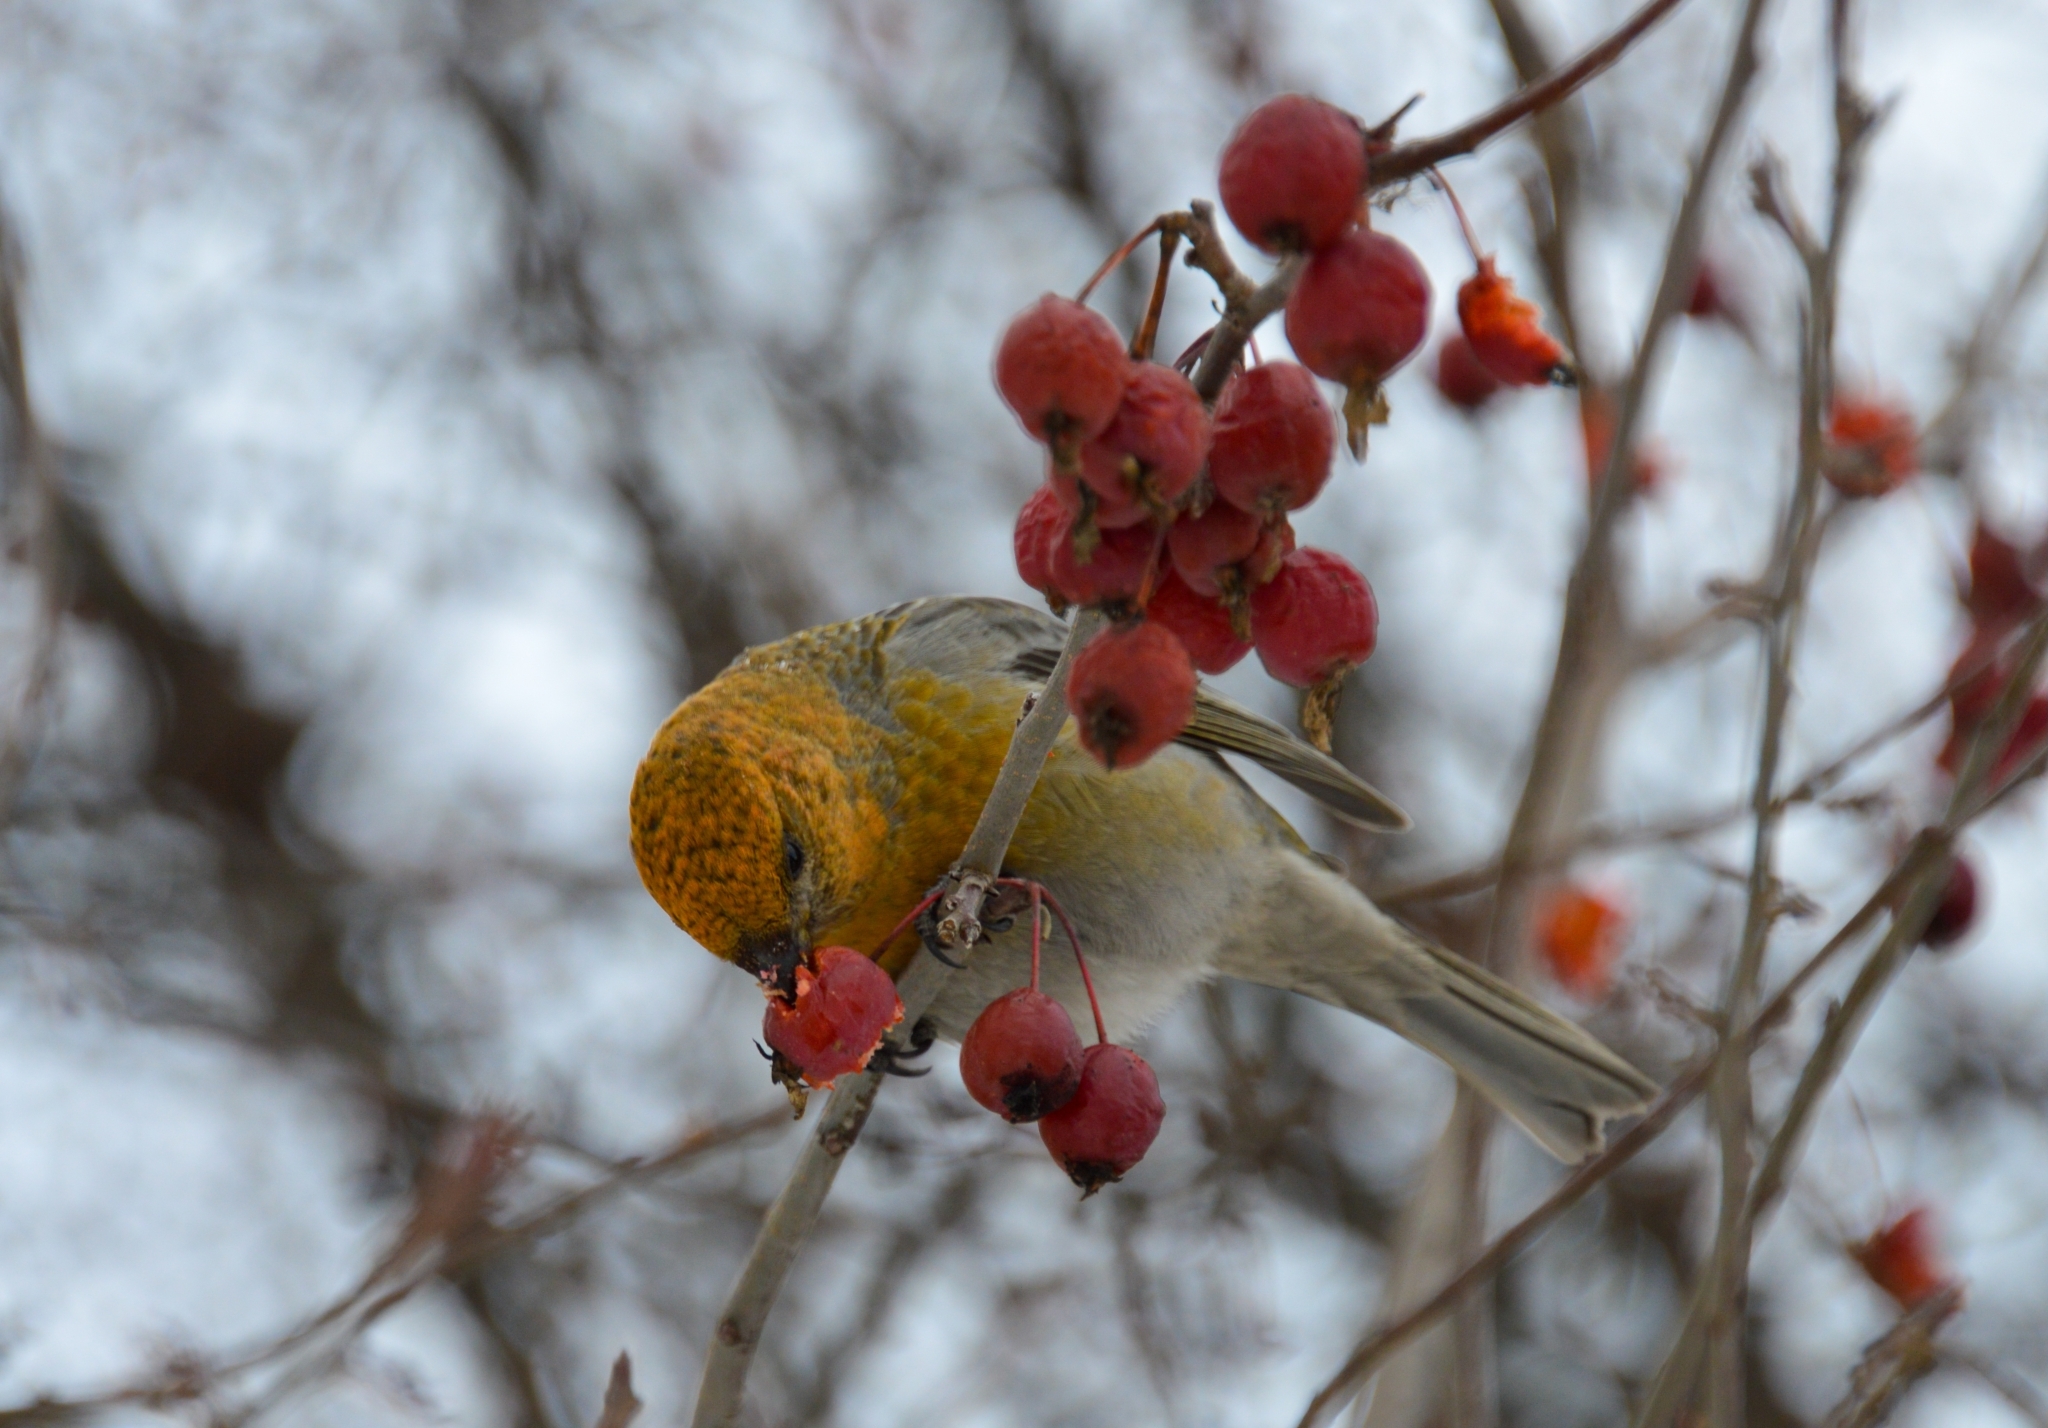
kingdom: Animalia
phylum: Chordata
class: Aves
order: Passeriformes
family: Fringillidae
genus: Pinicola
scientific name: Pinicola enucleator
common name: Pine grosbeak
